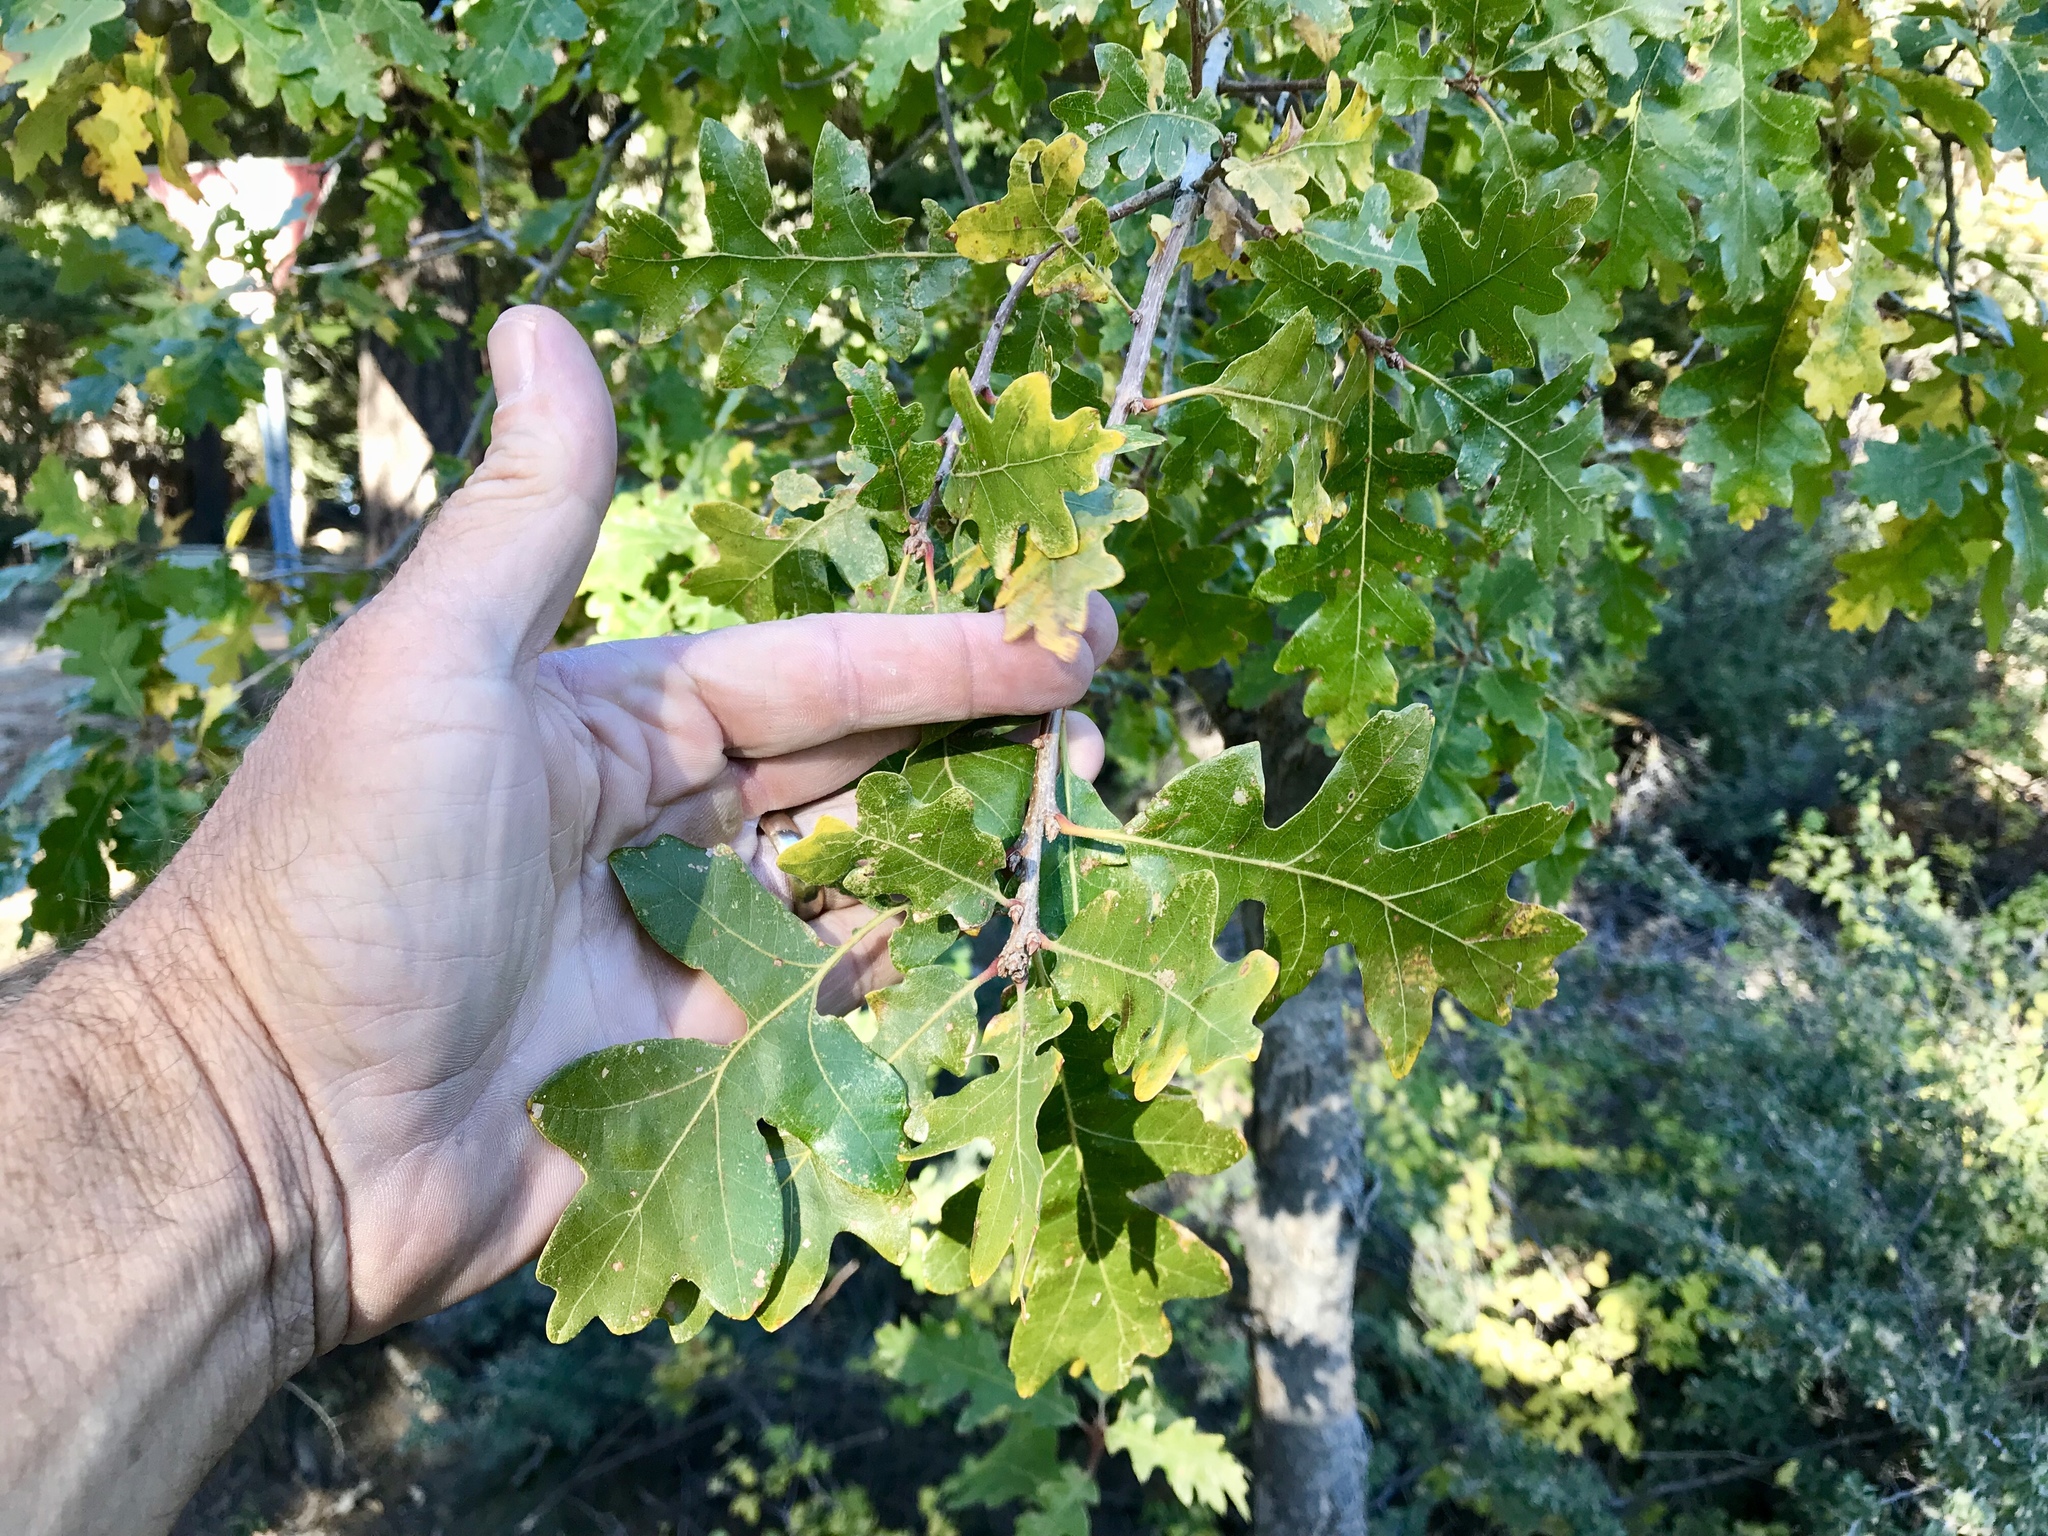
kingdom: Plantae
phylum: Tracheophyta
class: Magnoliopsida
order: Fagales
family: Fagaceae
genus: Quercus
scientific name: Quercus gambelii
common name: Gambel oak
